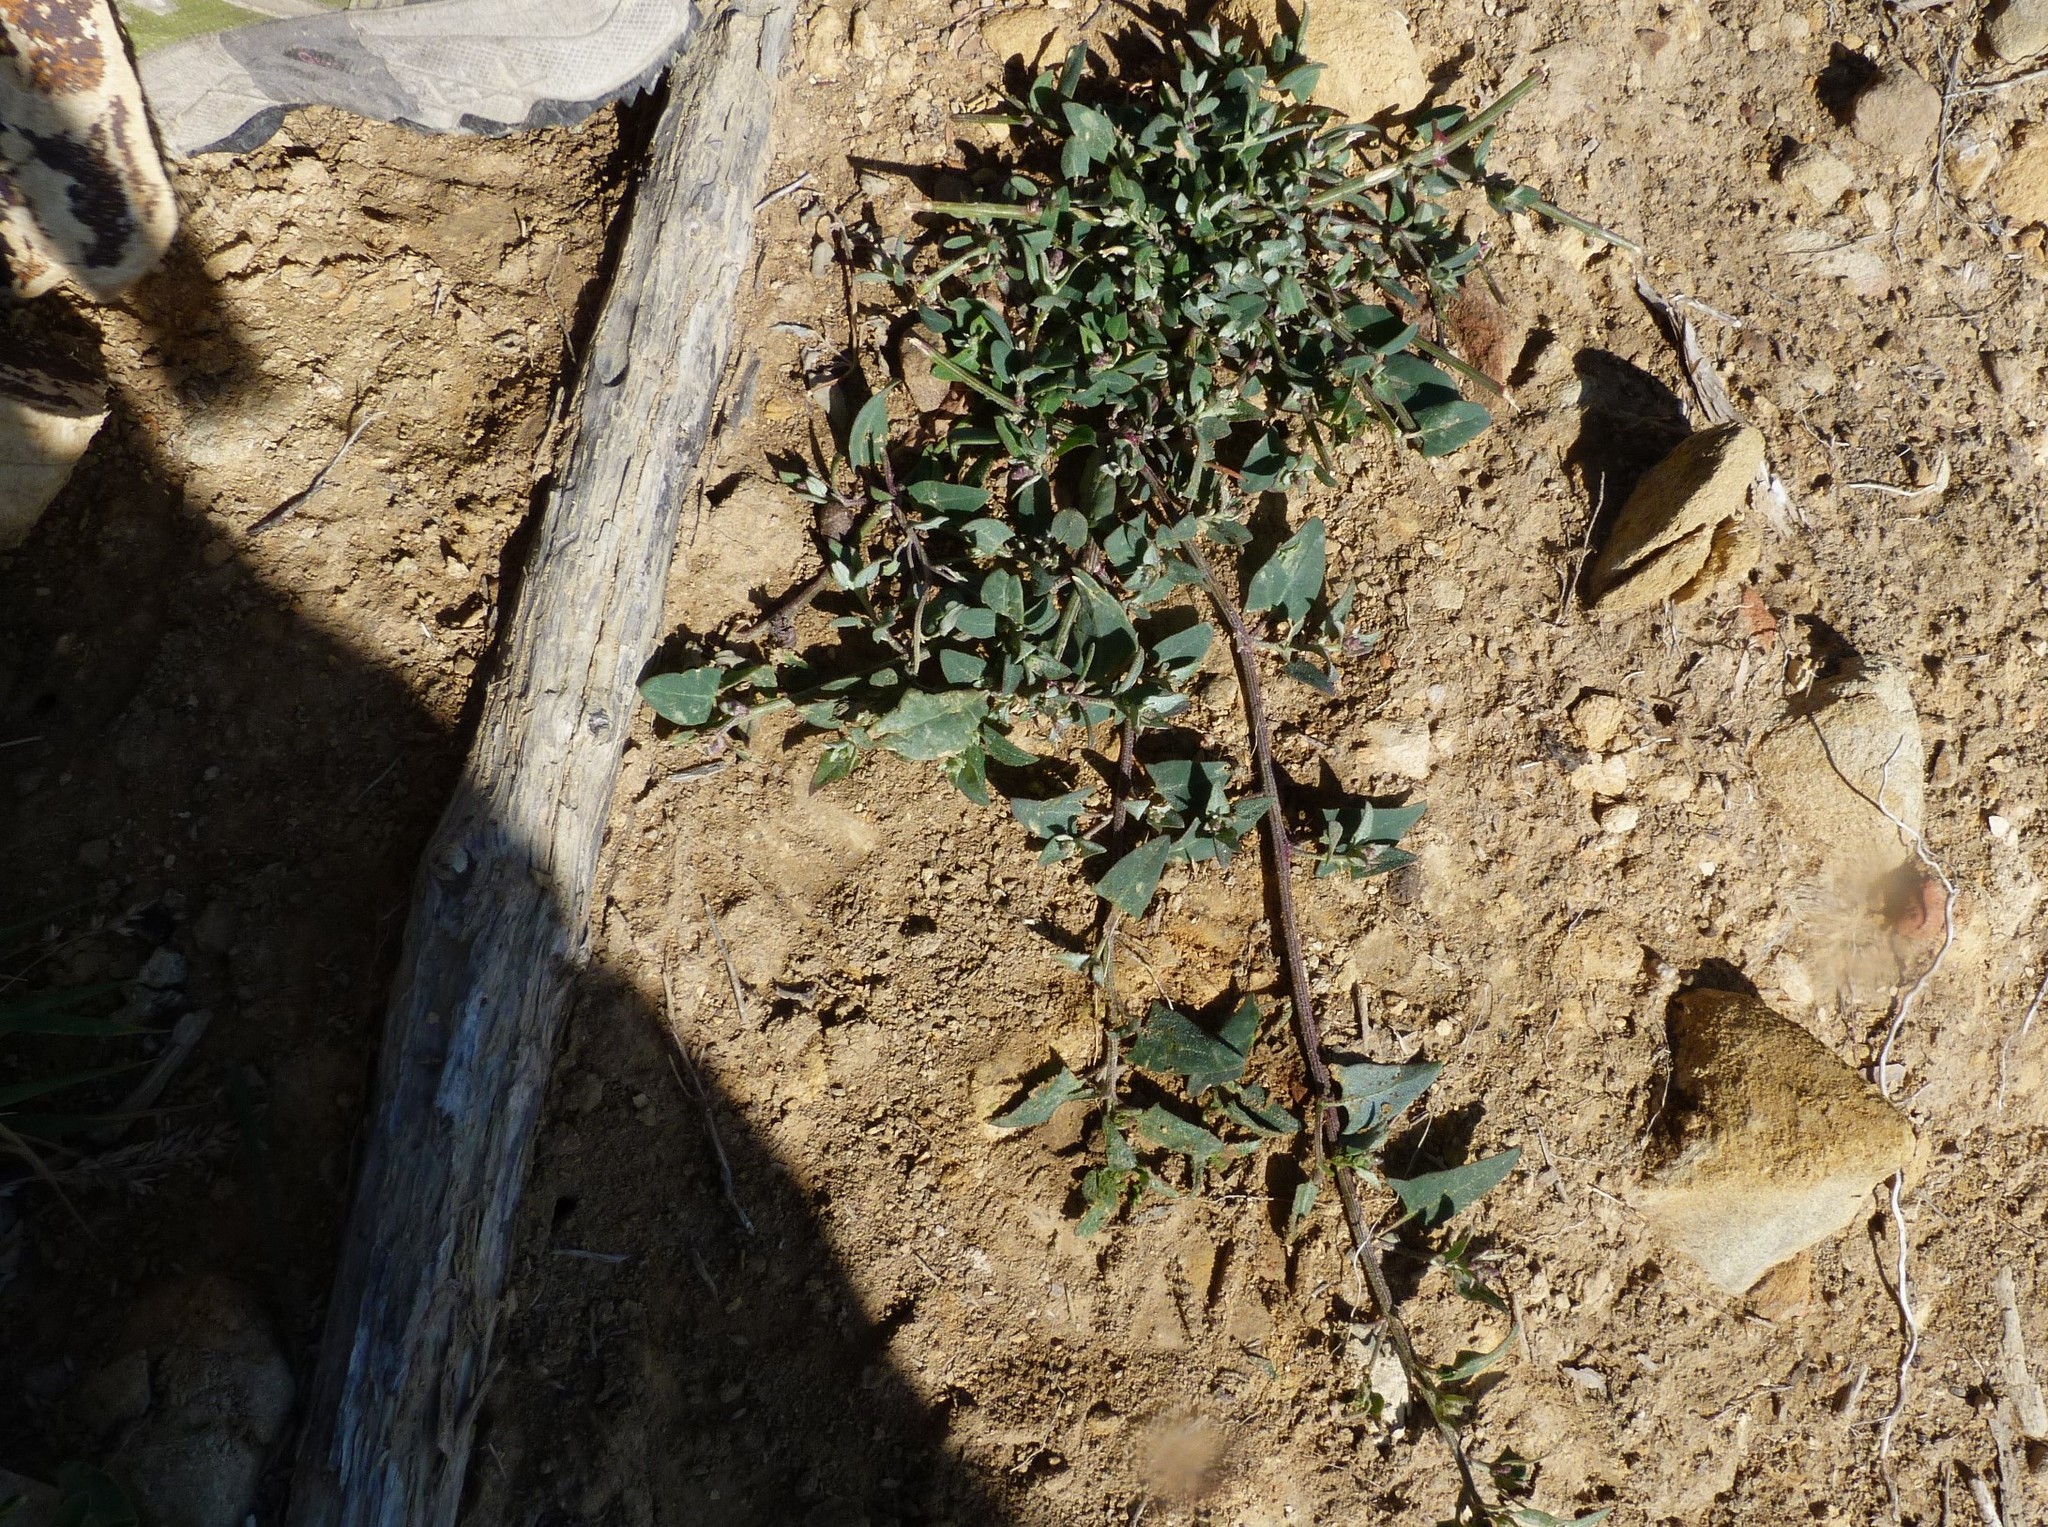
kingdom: Plantae
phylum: Tracheophyta
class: Magnoliopsida
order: Caryophyllales
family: Amaranthaceae
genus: Atriplex
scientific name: Atriplex prostrata
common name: Spear-leaved orache
